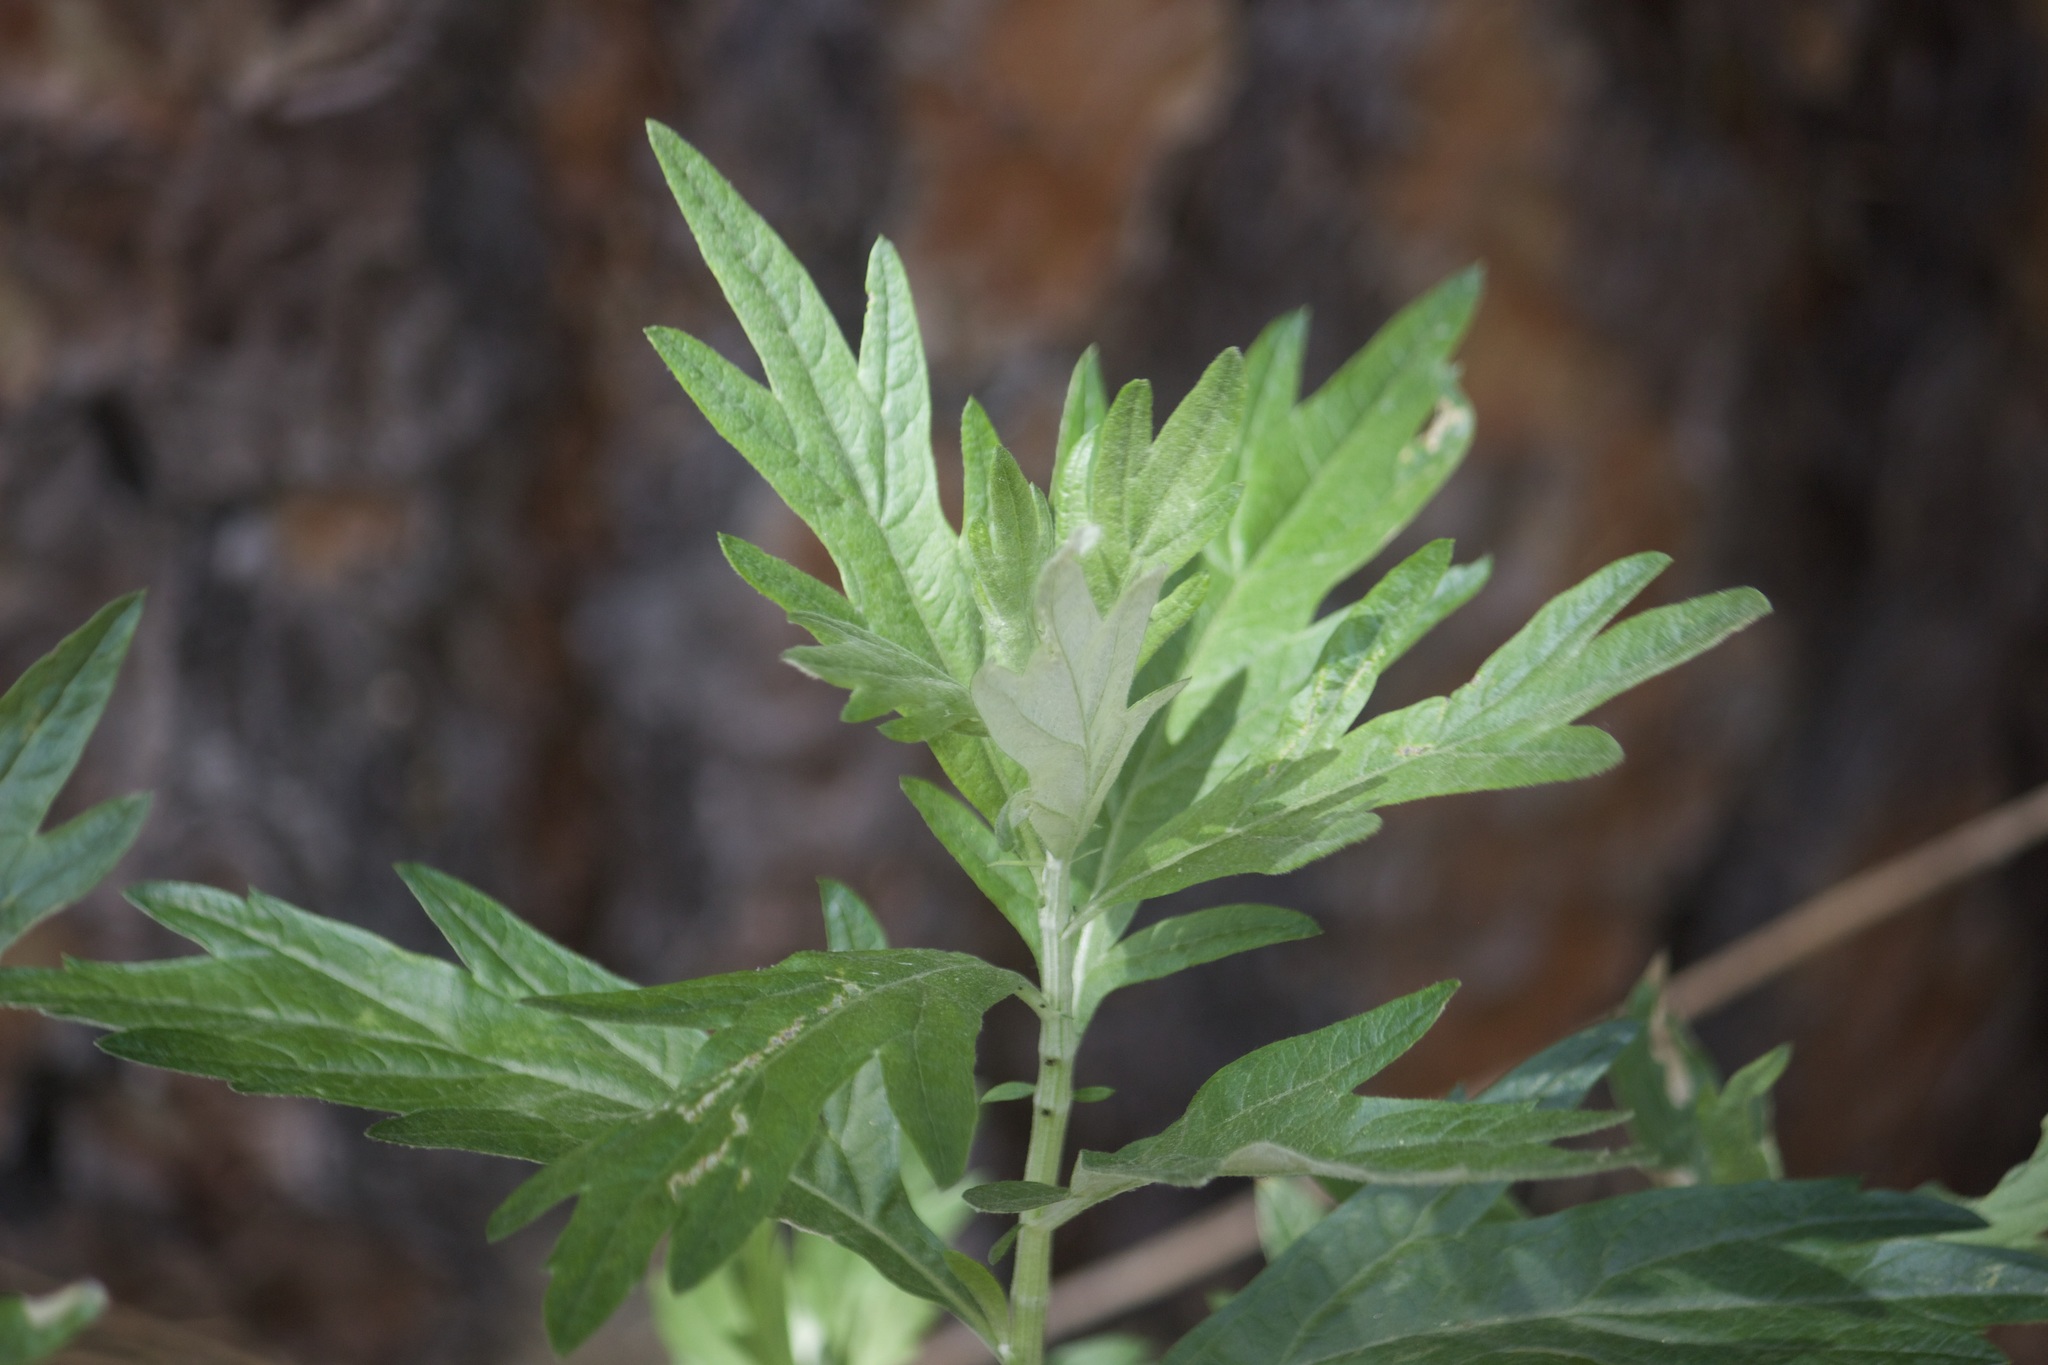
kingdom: Plantae
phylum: Tracheophyta
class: Magnoliopsida
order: Asterales
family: Asteraceae
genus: Artemisia
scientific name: Artemisia douglasiana
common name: Northwest mugwort
